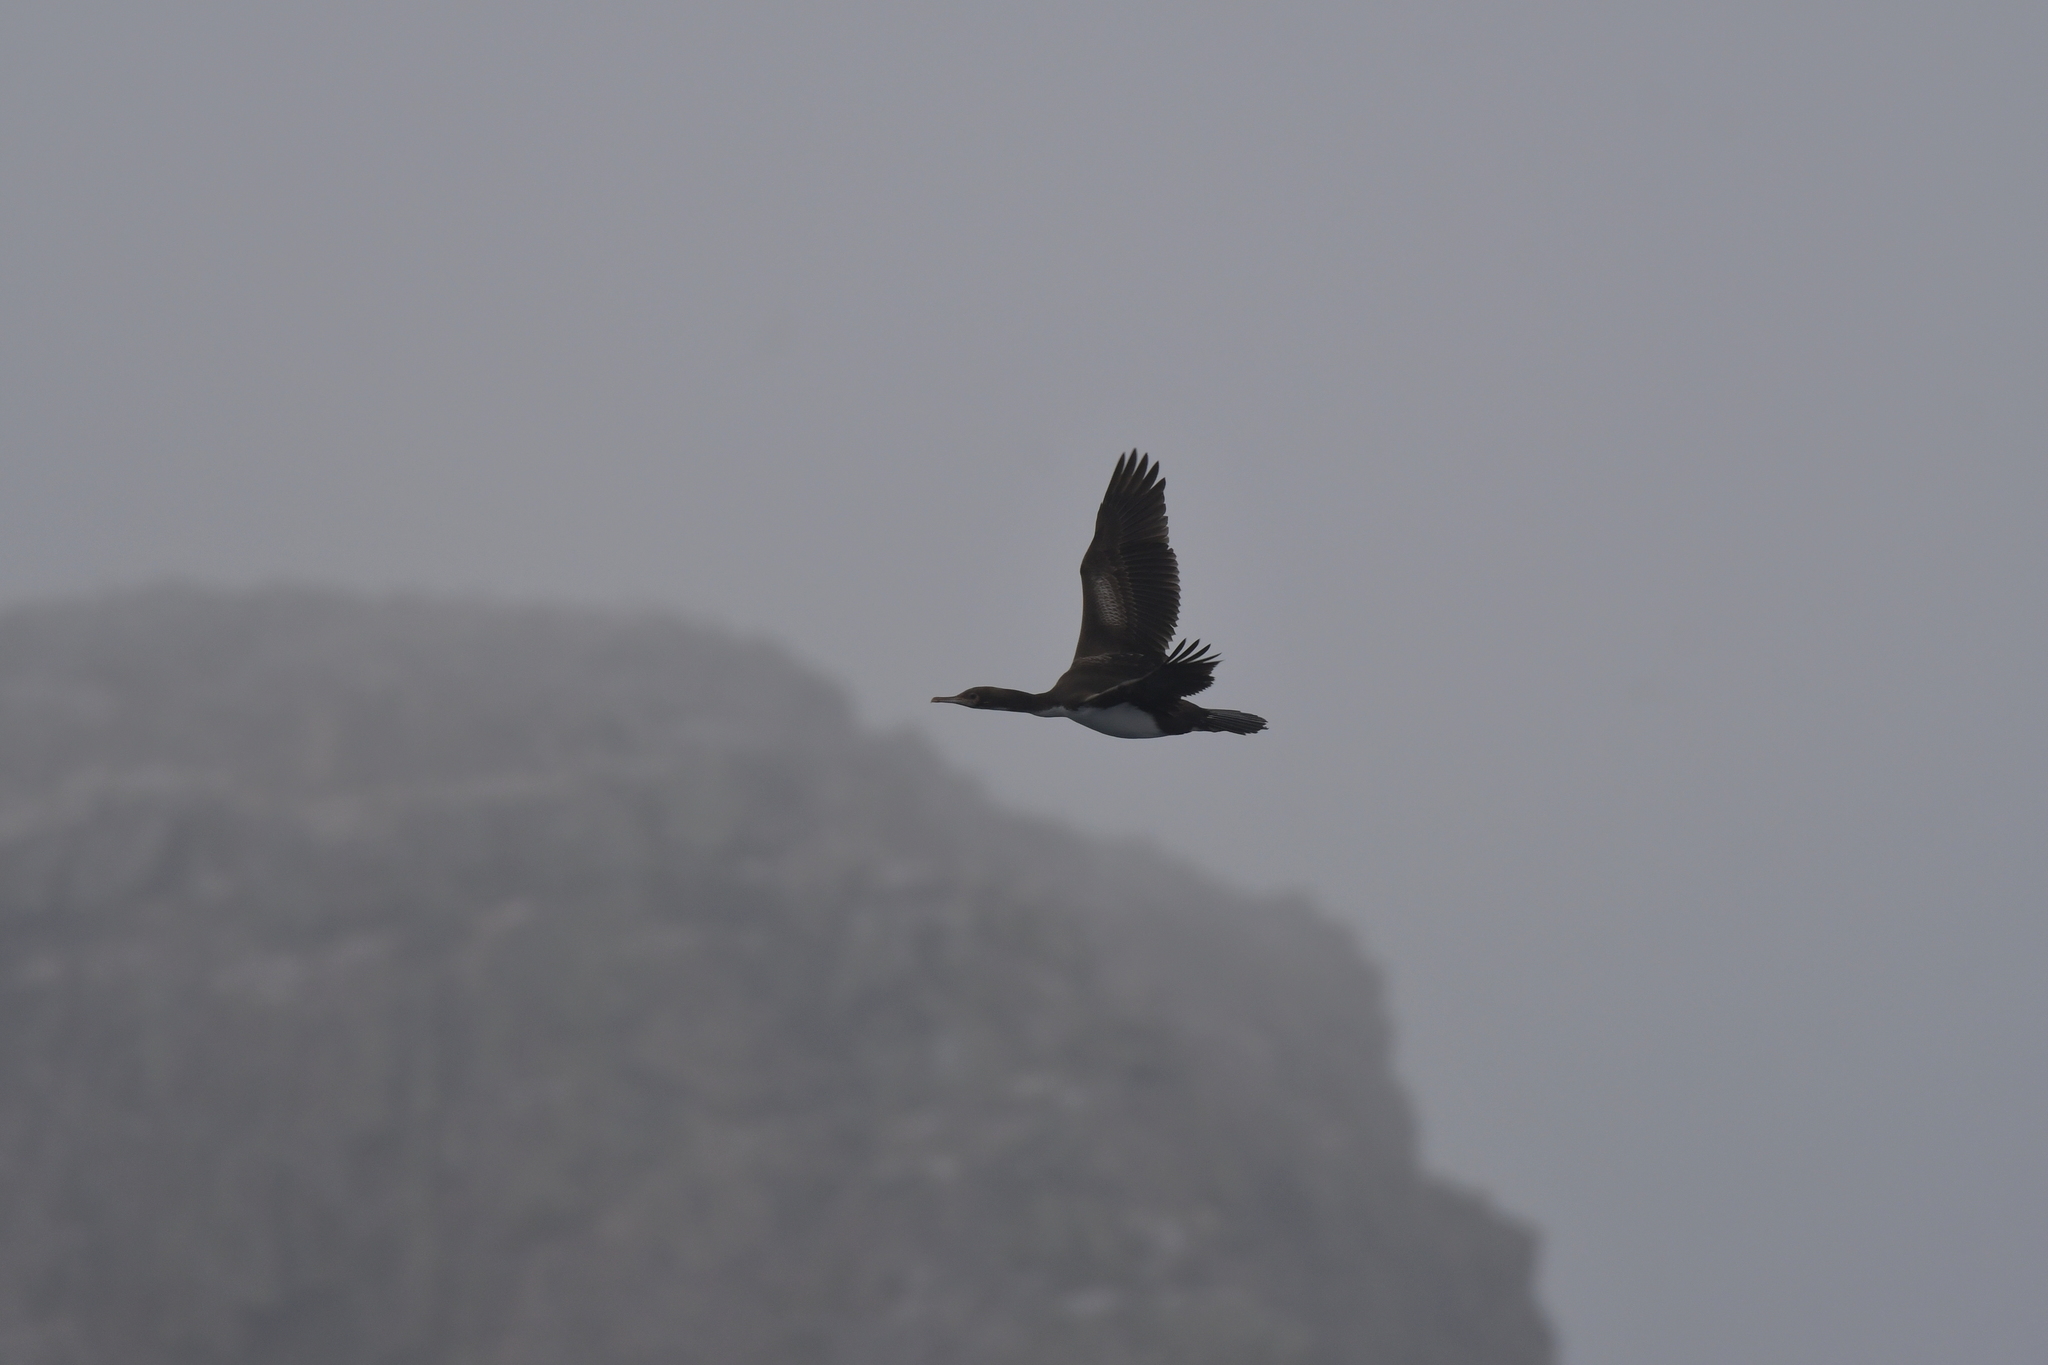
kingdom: Animalia
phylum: Chordata
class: Aves
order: Suliformes
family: Phalacrocoracidae
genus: Leucocarbo
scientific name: Leucocarbo ranfurlyi
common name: Bounty shag
